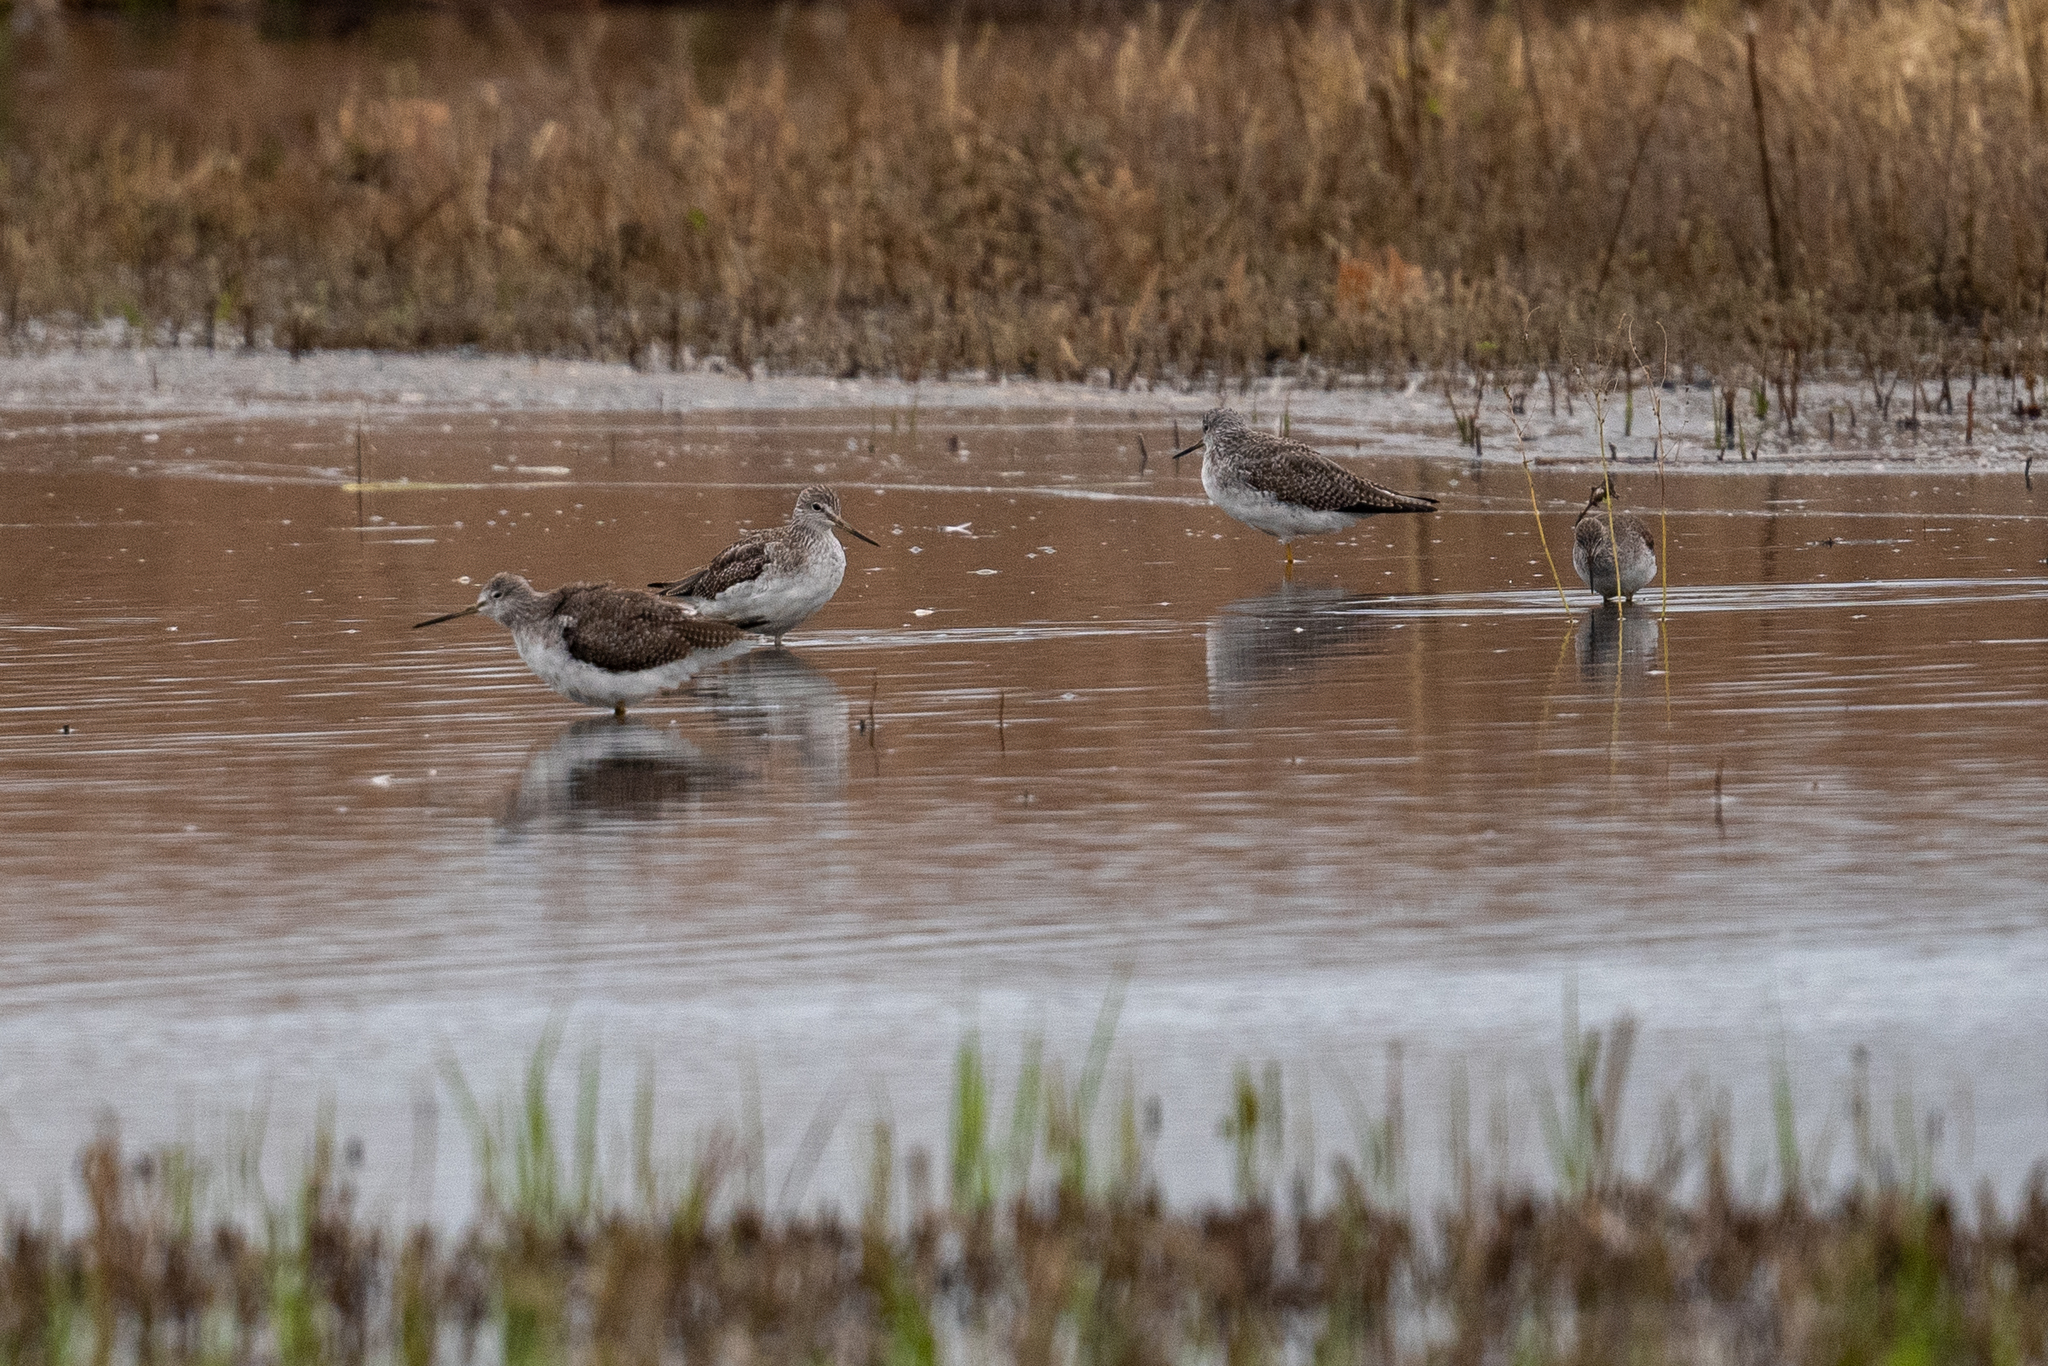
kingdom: Animalia
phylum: Chordata
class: Aves
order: Charadriiformes
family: Scolopacidae
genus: Tringa
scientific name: Tringa melanoleuca
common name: Greater yellowlegs
